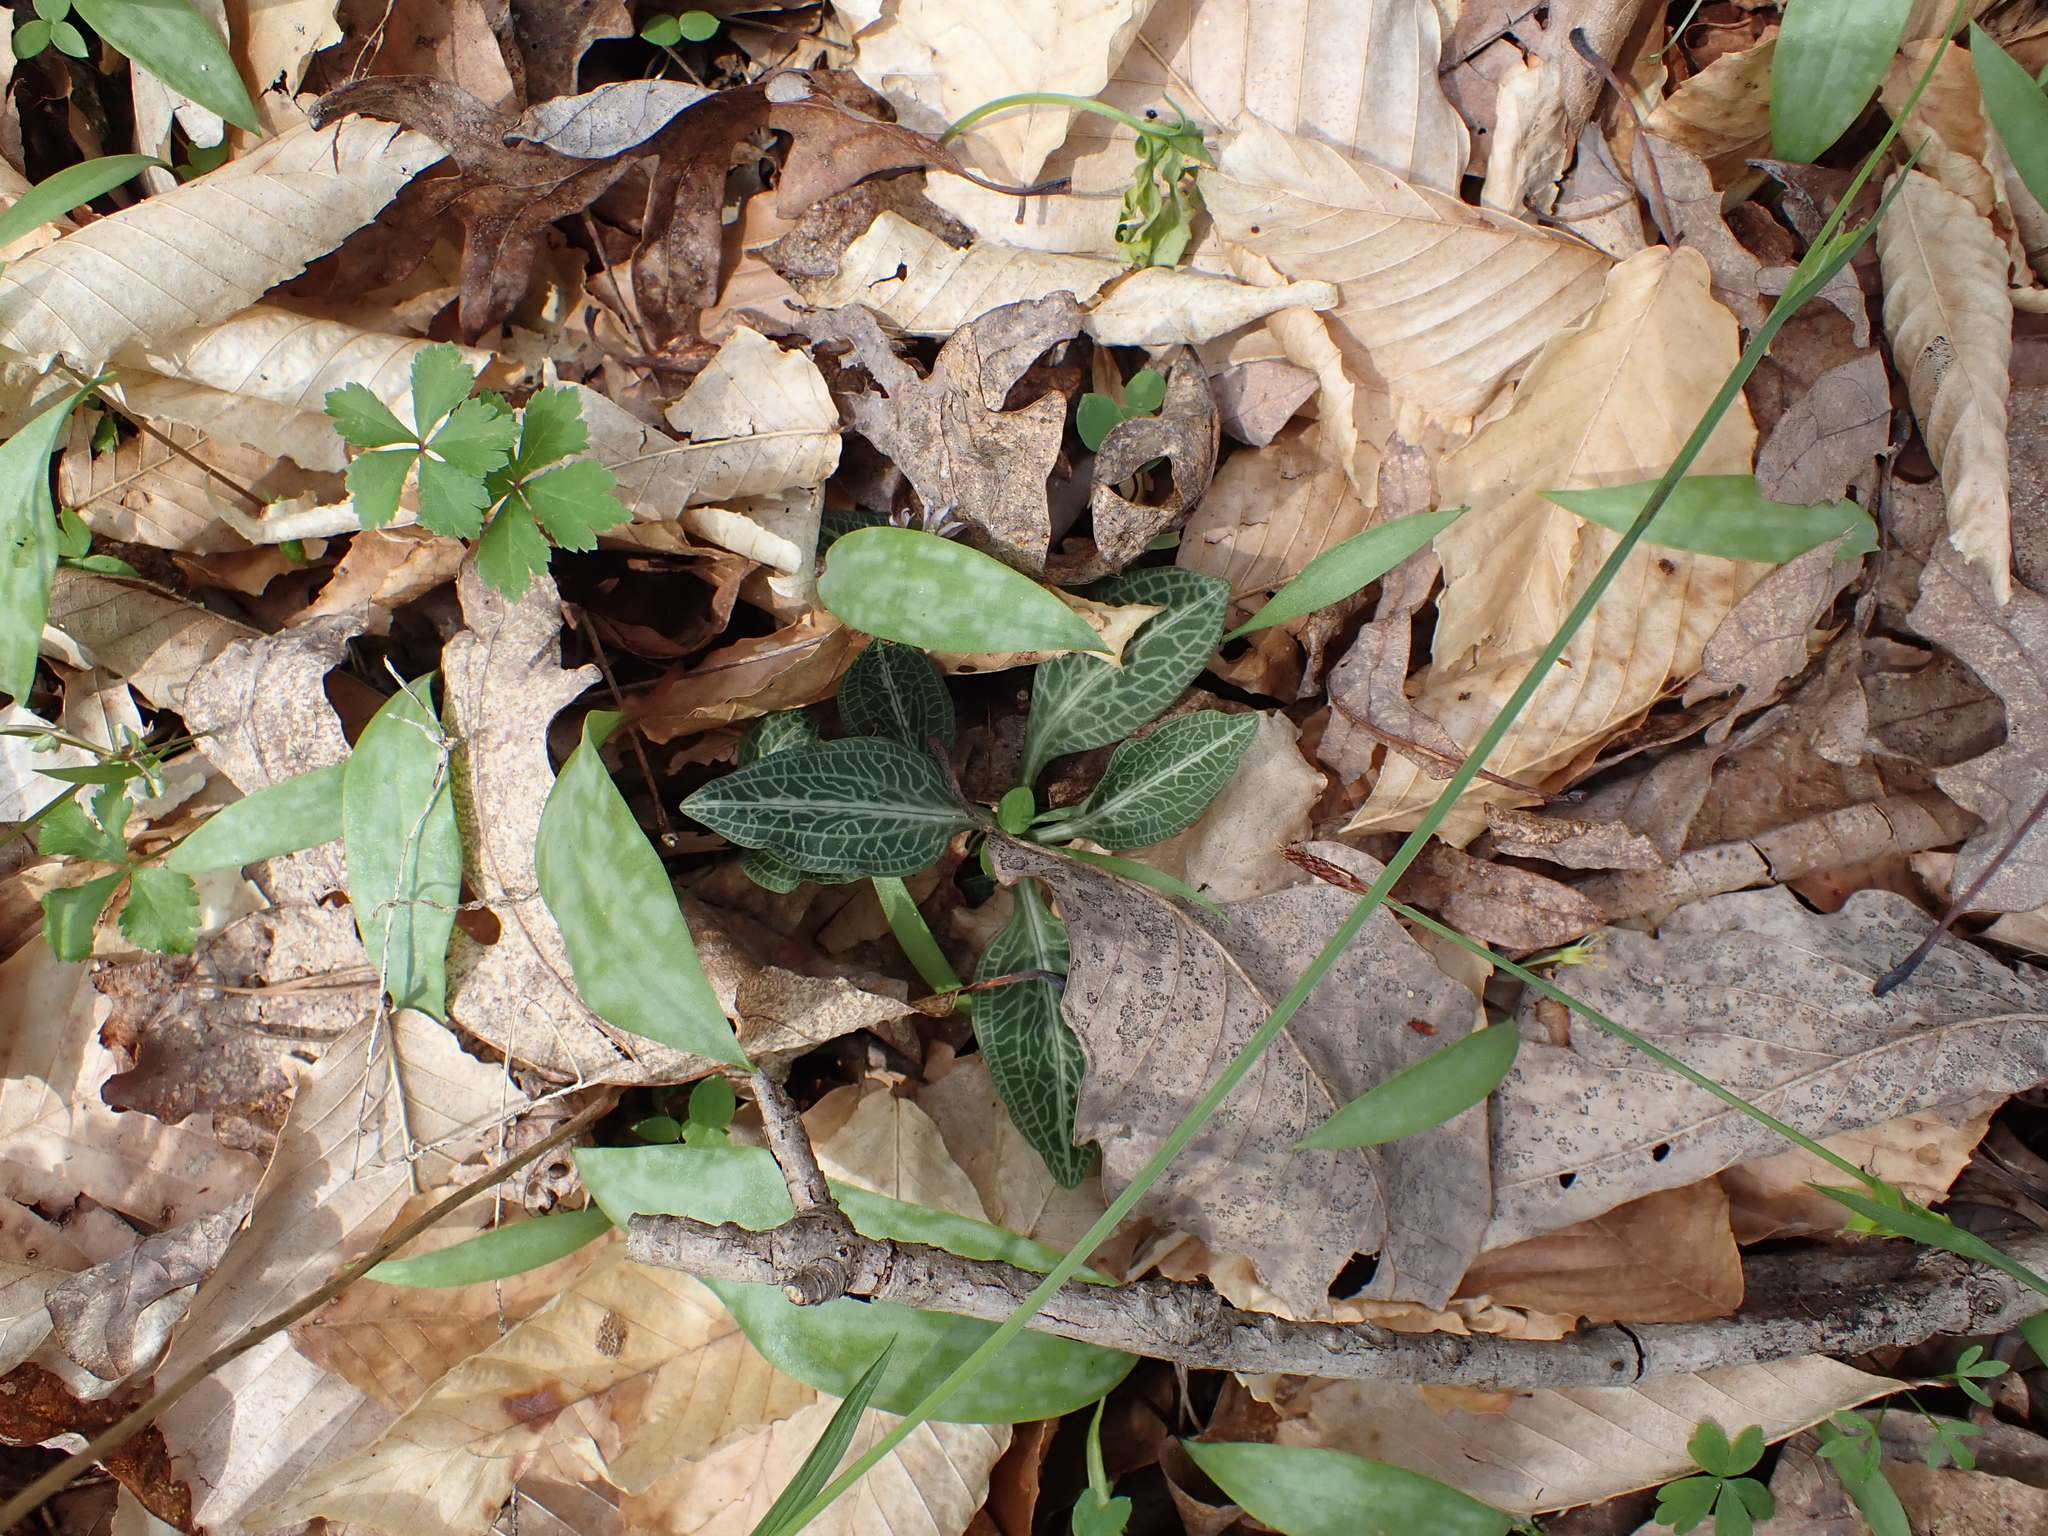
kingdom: Plantae
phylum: Tracheophyta
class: Liliopsida
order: Asparagales
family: Orchidaceae
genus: Goodyera
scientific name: Goodyera pubescens
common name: Downy rattlesnake-plantain
